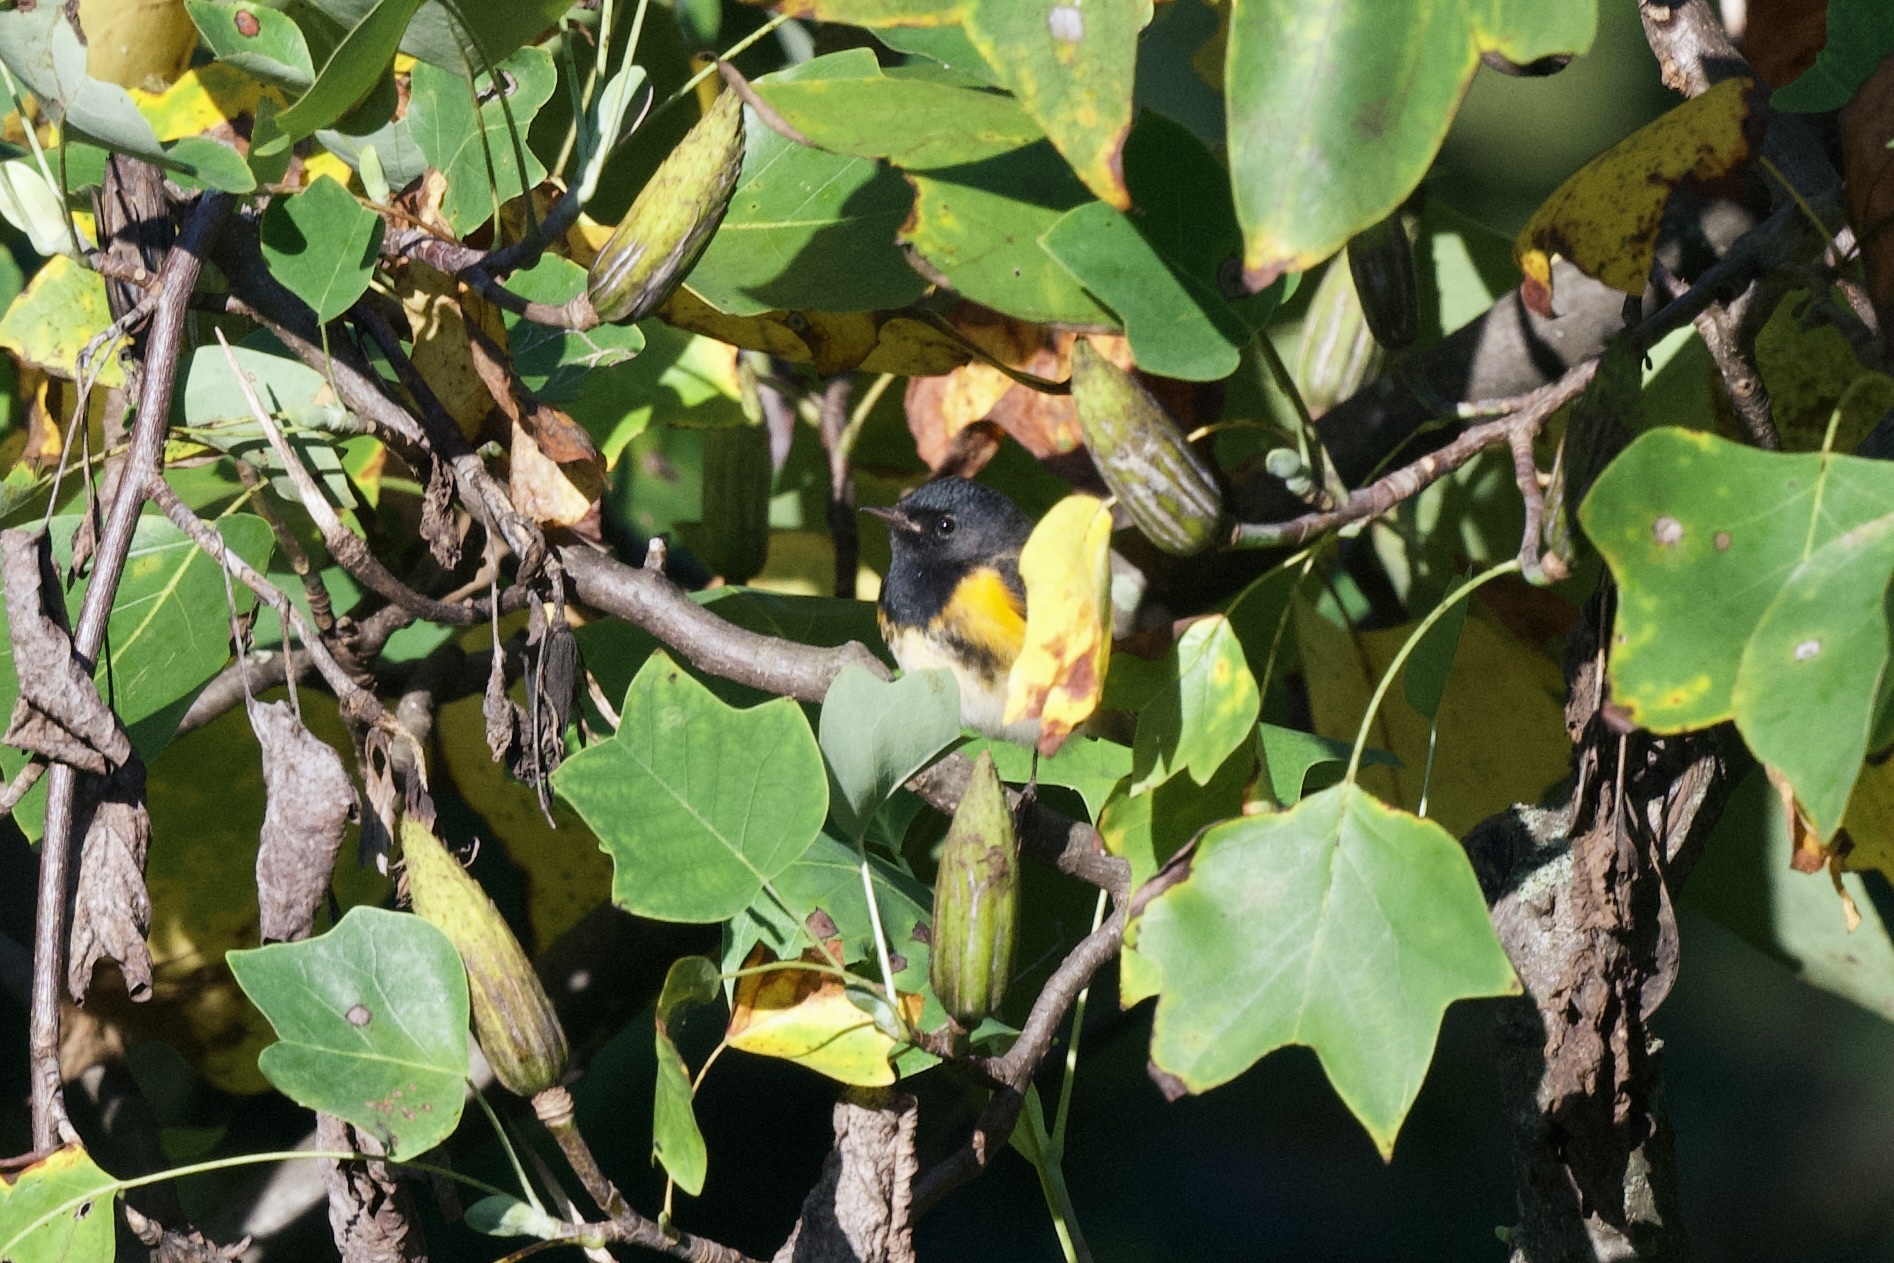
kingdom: Animalia
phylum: Chordata
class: Aves
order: Passeriformes
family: Parulidae
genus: Setophaga
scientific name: Setophaga ruticilla
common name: American redstart
